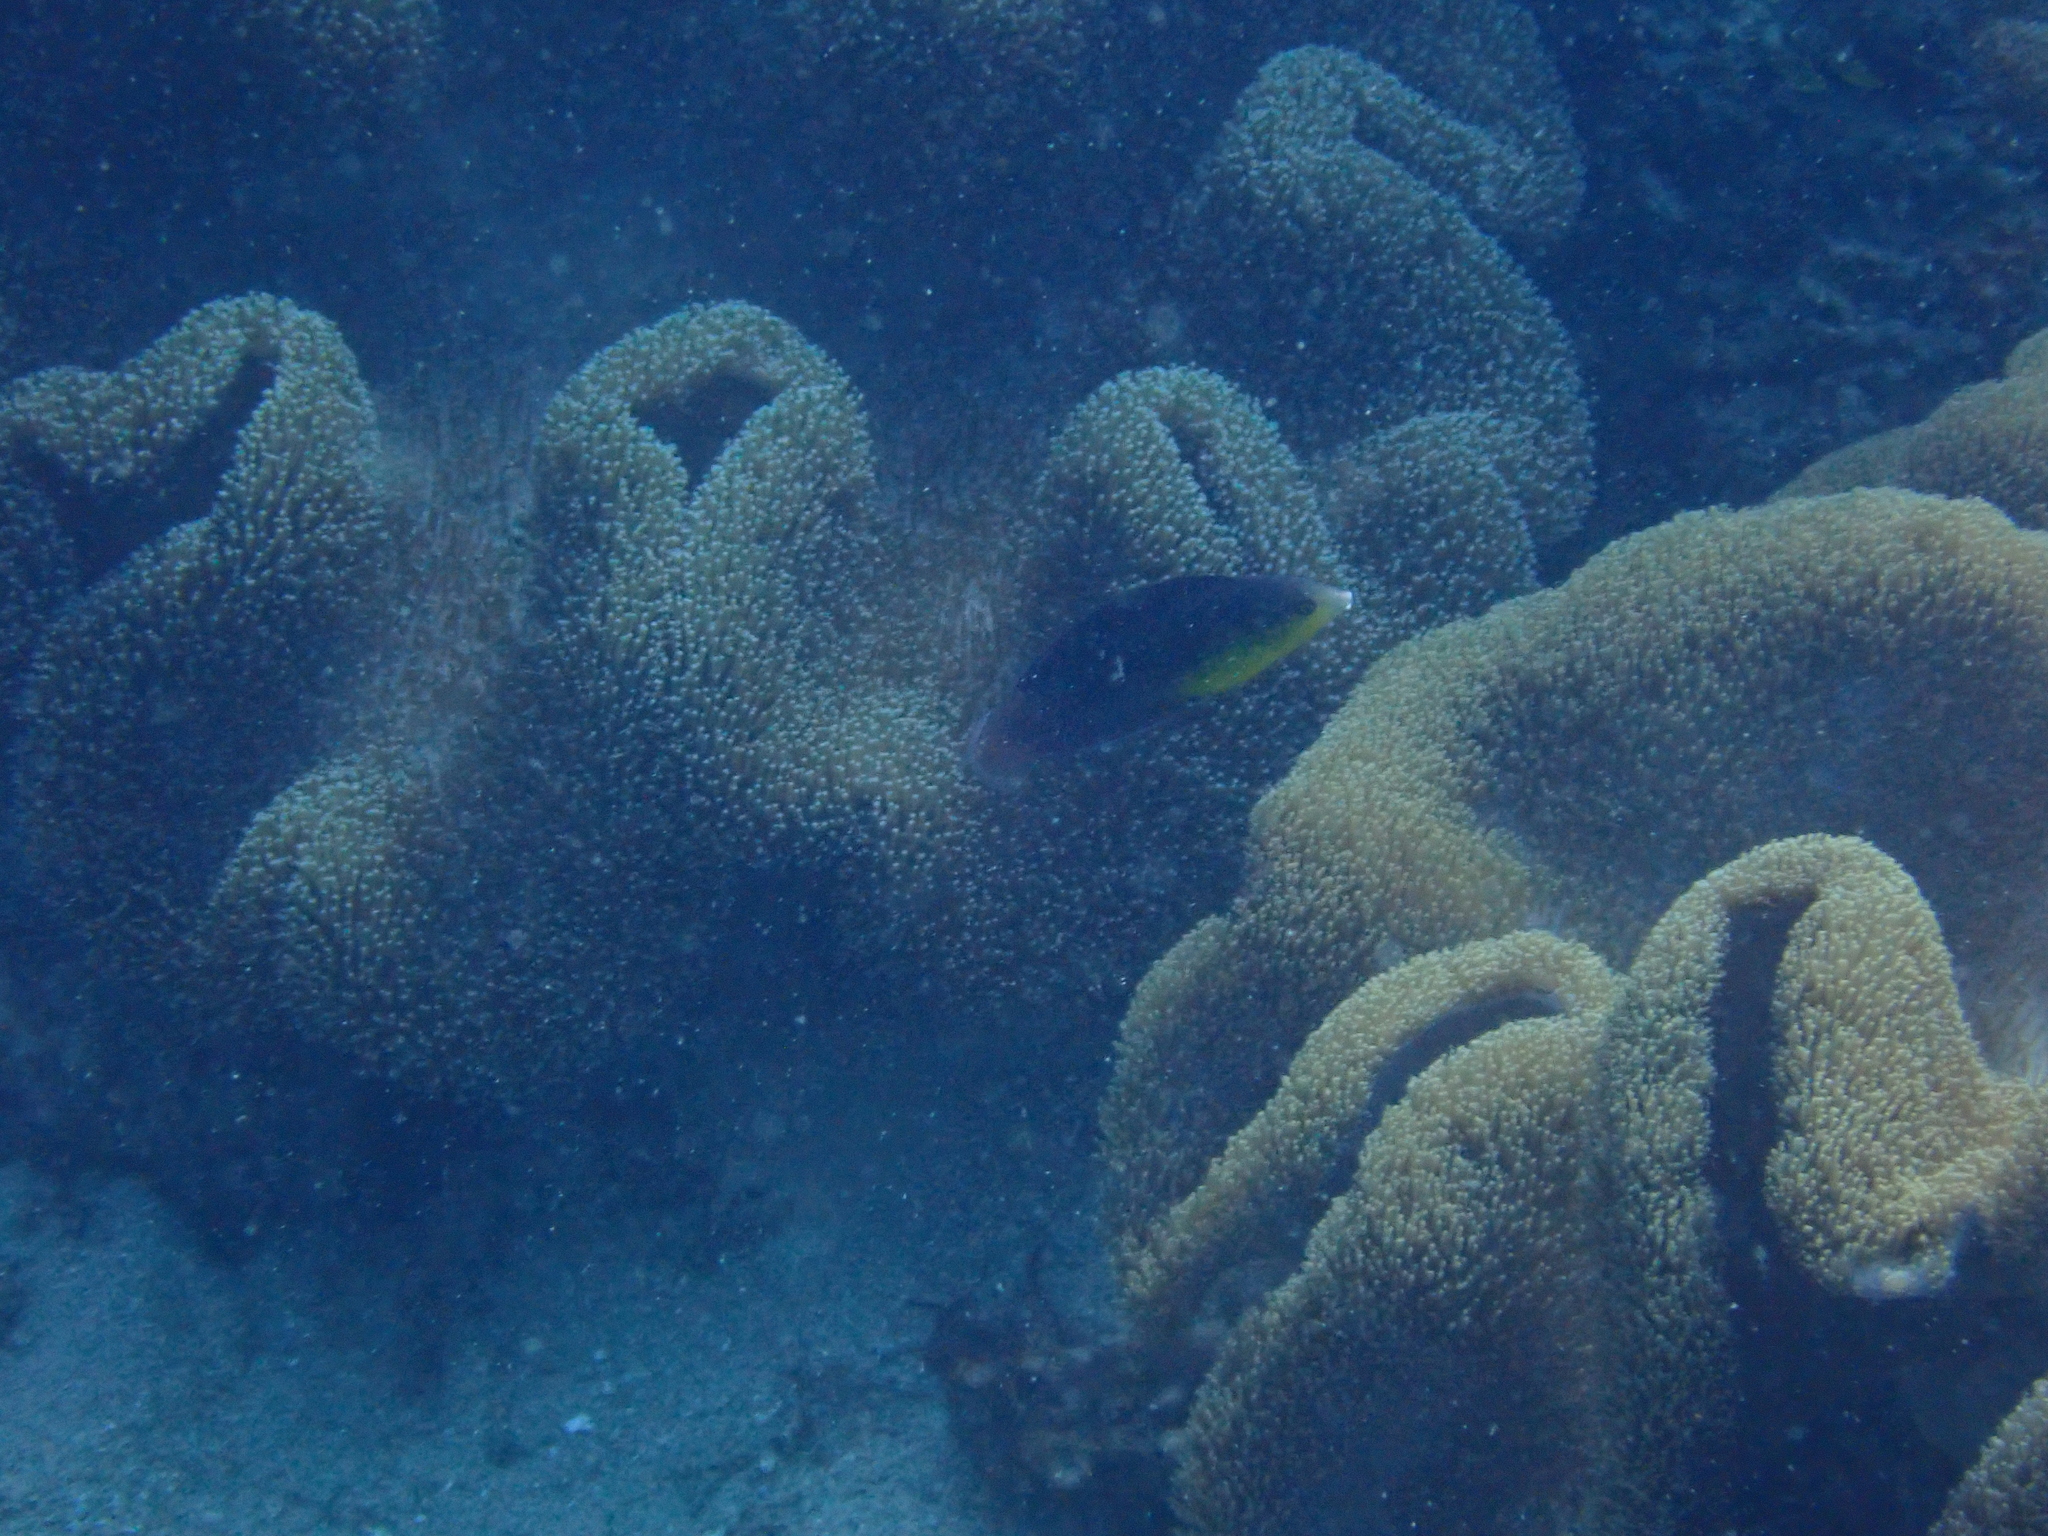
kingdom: Animalia
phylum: Chordata
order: Perciformes
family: Labridae
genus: Anampses
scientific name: Anampses twistii
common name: Yellowbreasted wrasse
